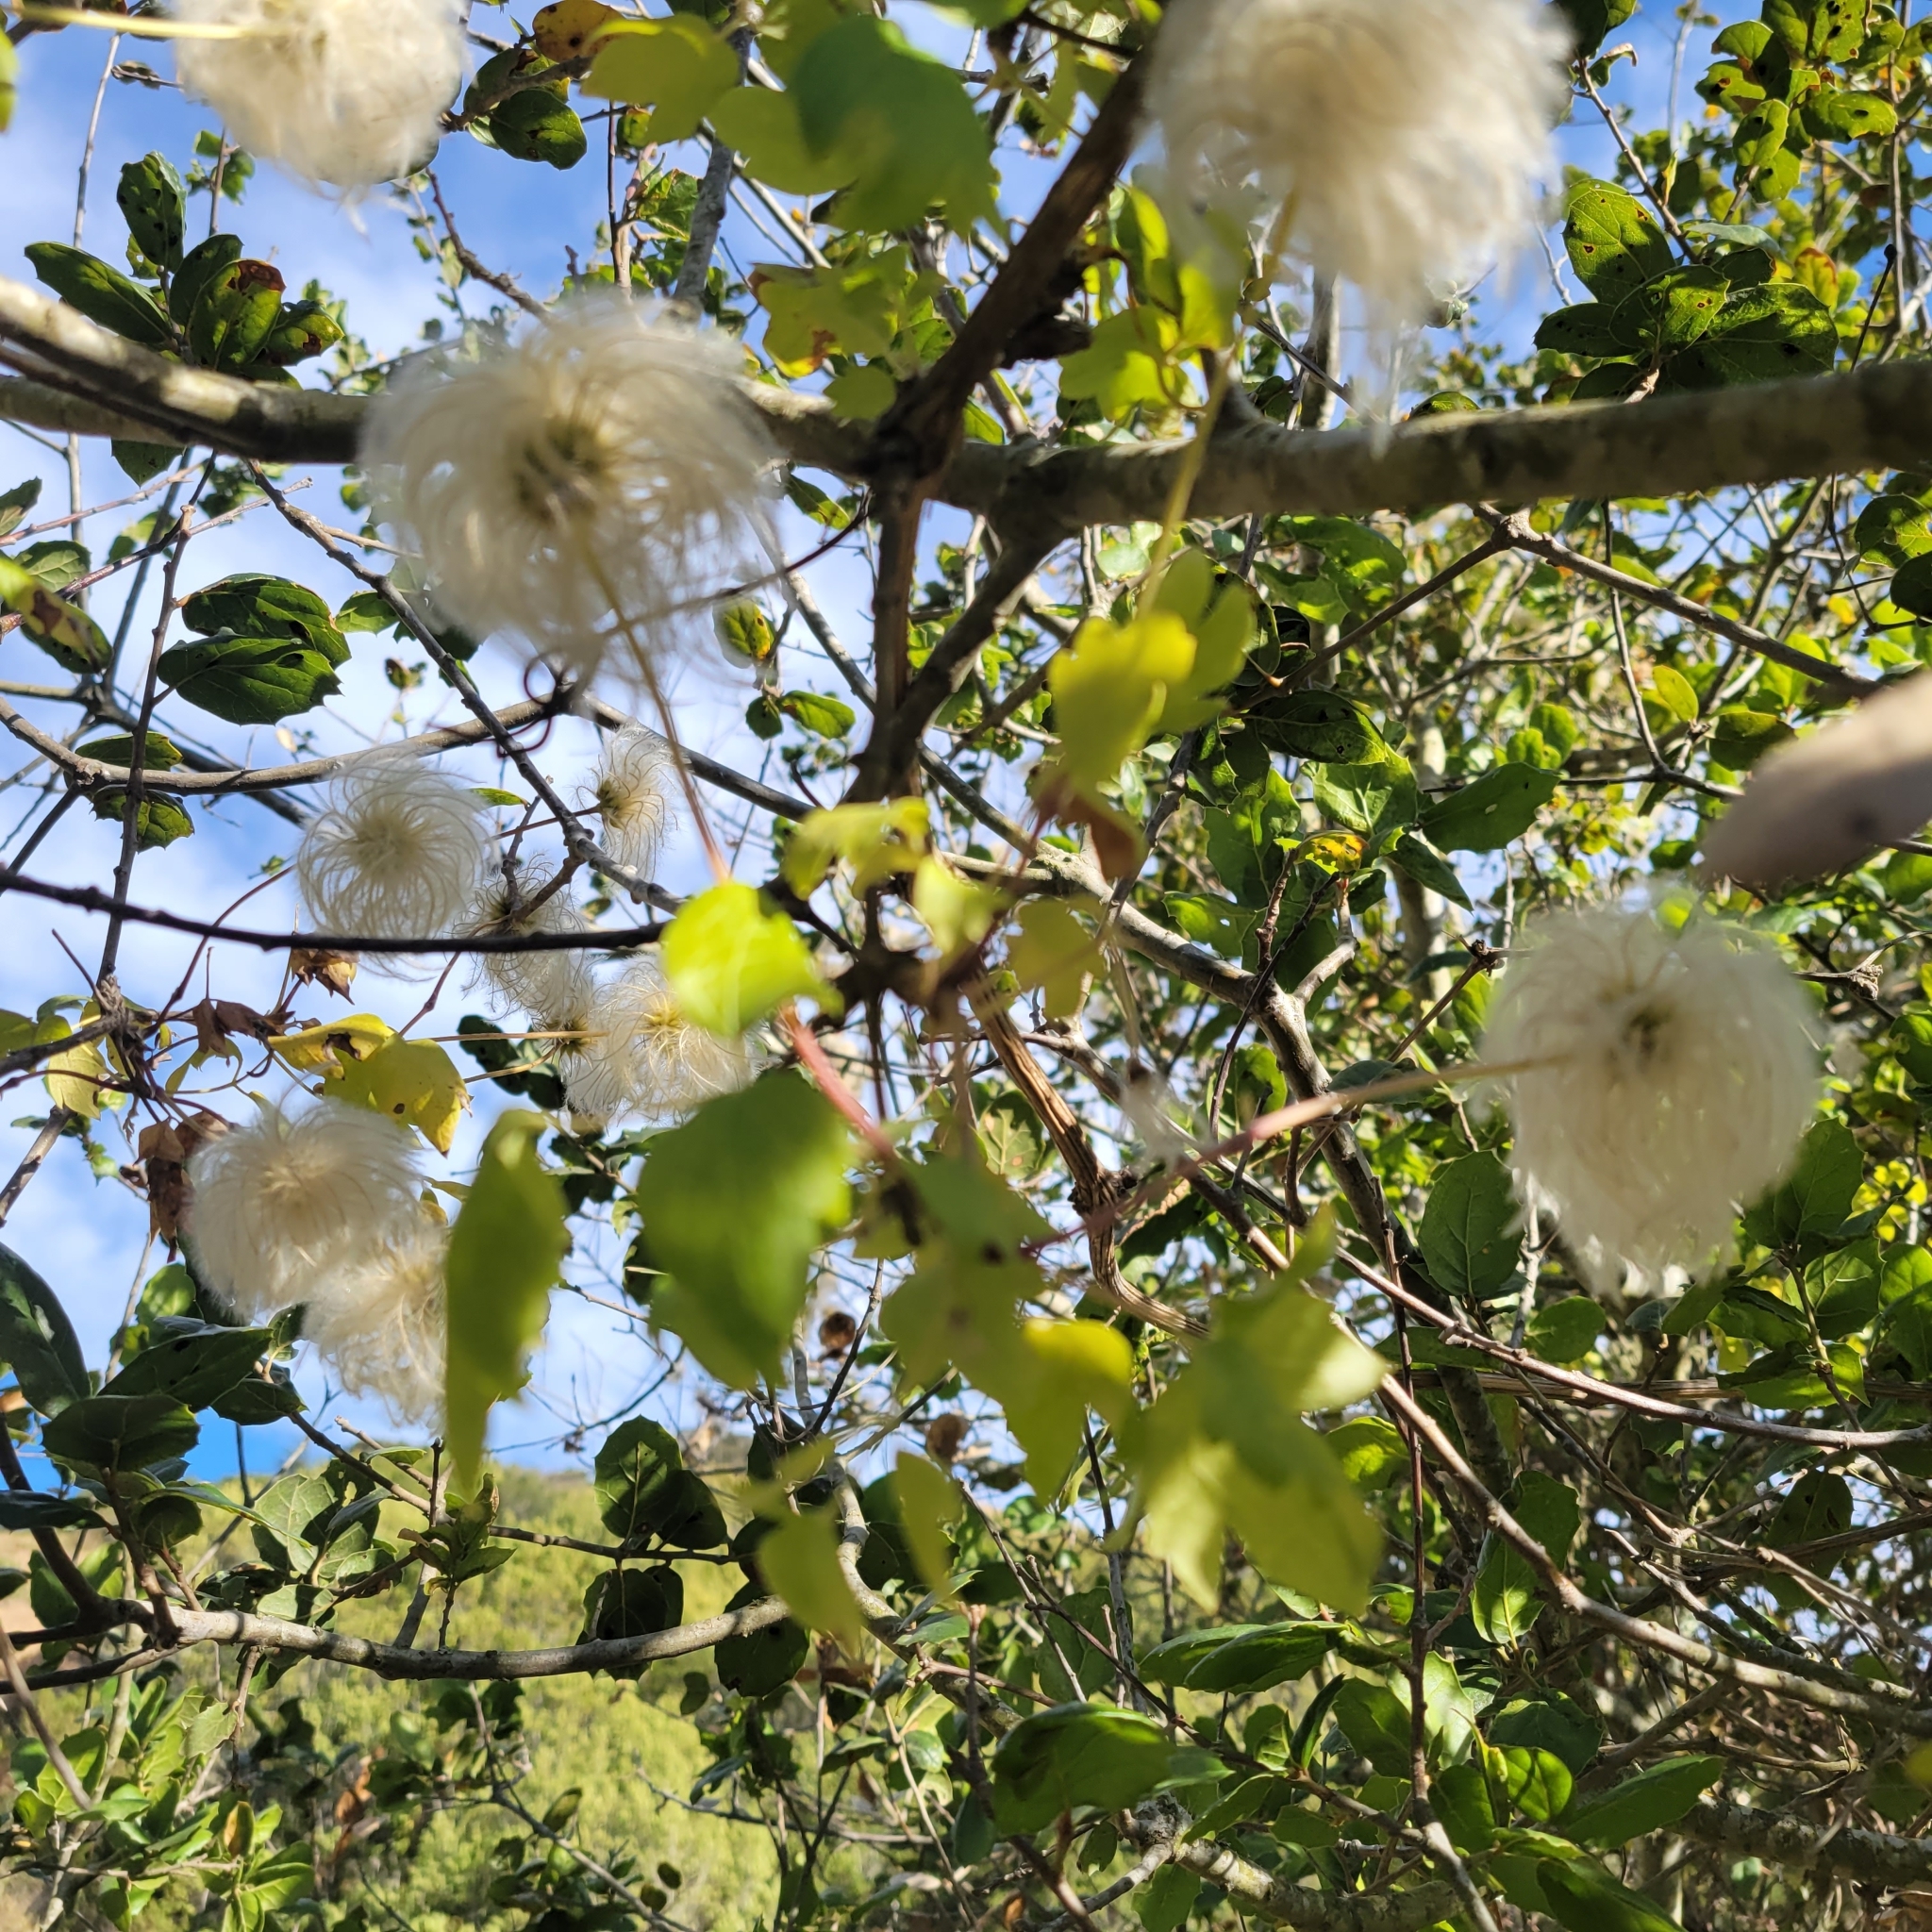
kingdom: Plantae
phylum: Tracheophyta
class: Magnoliopsida
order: Ranunculales
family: Ranunculaceae
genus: Clematis
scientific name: Clematis lasiantha
